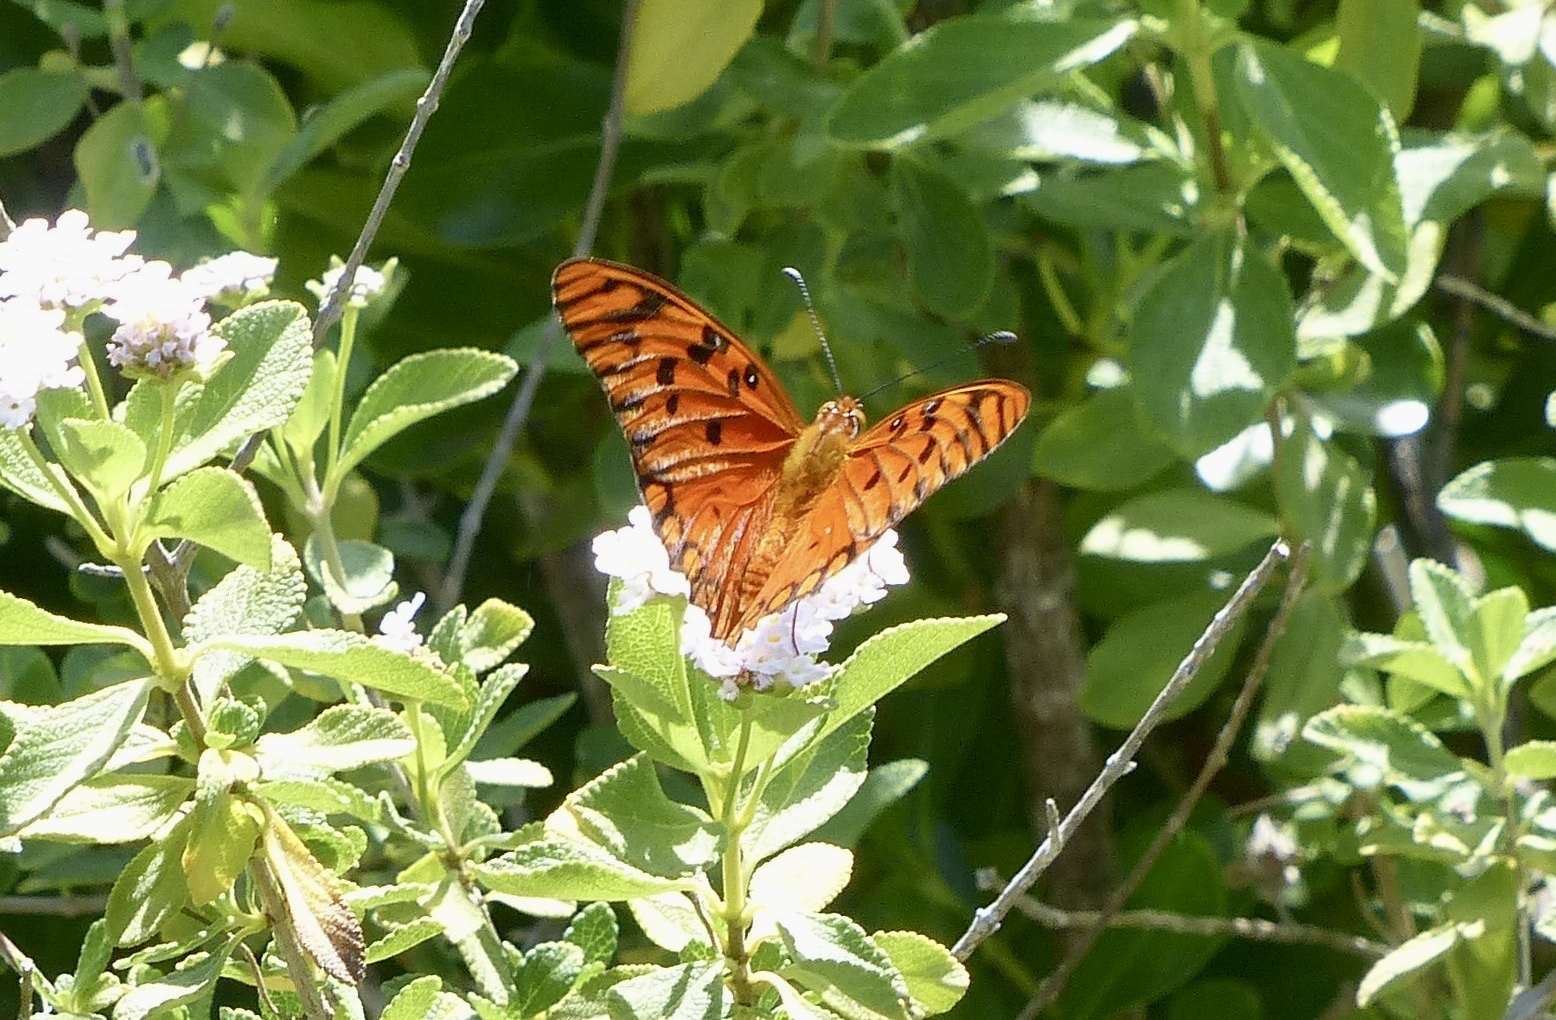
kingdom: Animalia
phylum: Arthropoda
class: Insecta
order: Lepidoptera
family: Nymphalidae
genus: Dione
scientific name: Dione vanillae
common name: Gulf fritillary
